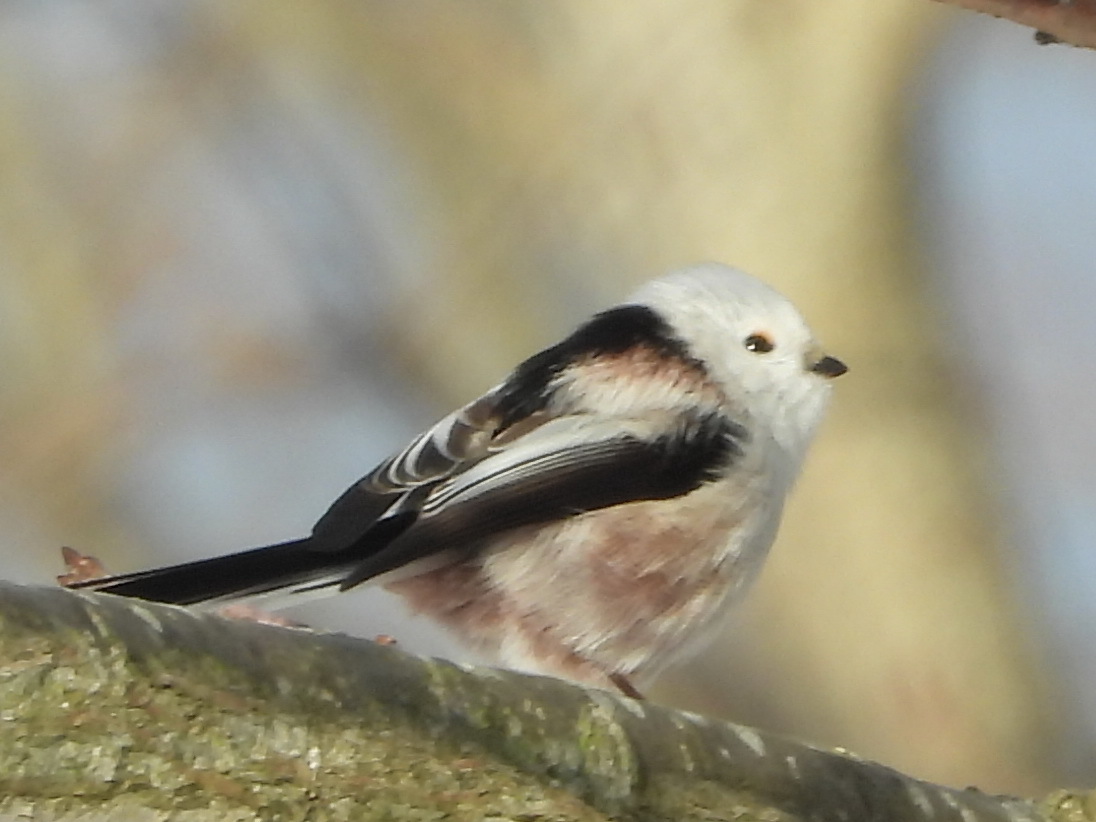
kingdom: Animalia
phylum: Chordata
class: Aves
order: Passeriformes
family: Aegithalidae
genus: Aegithalos
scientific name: Aegithalos caudatus
